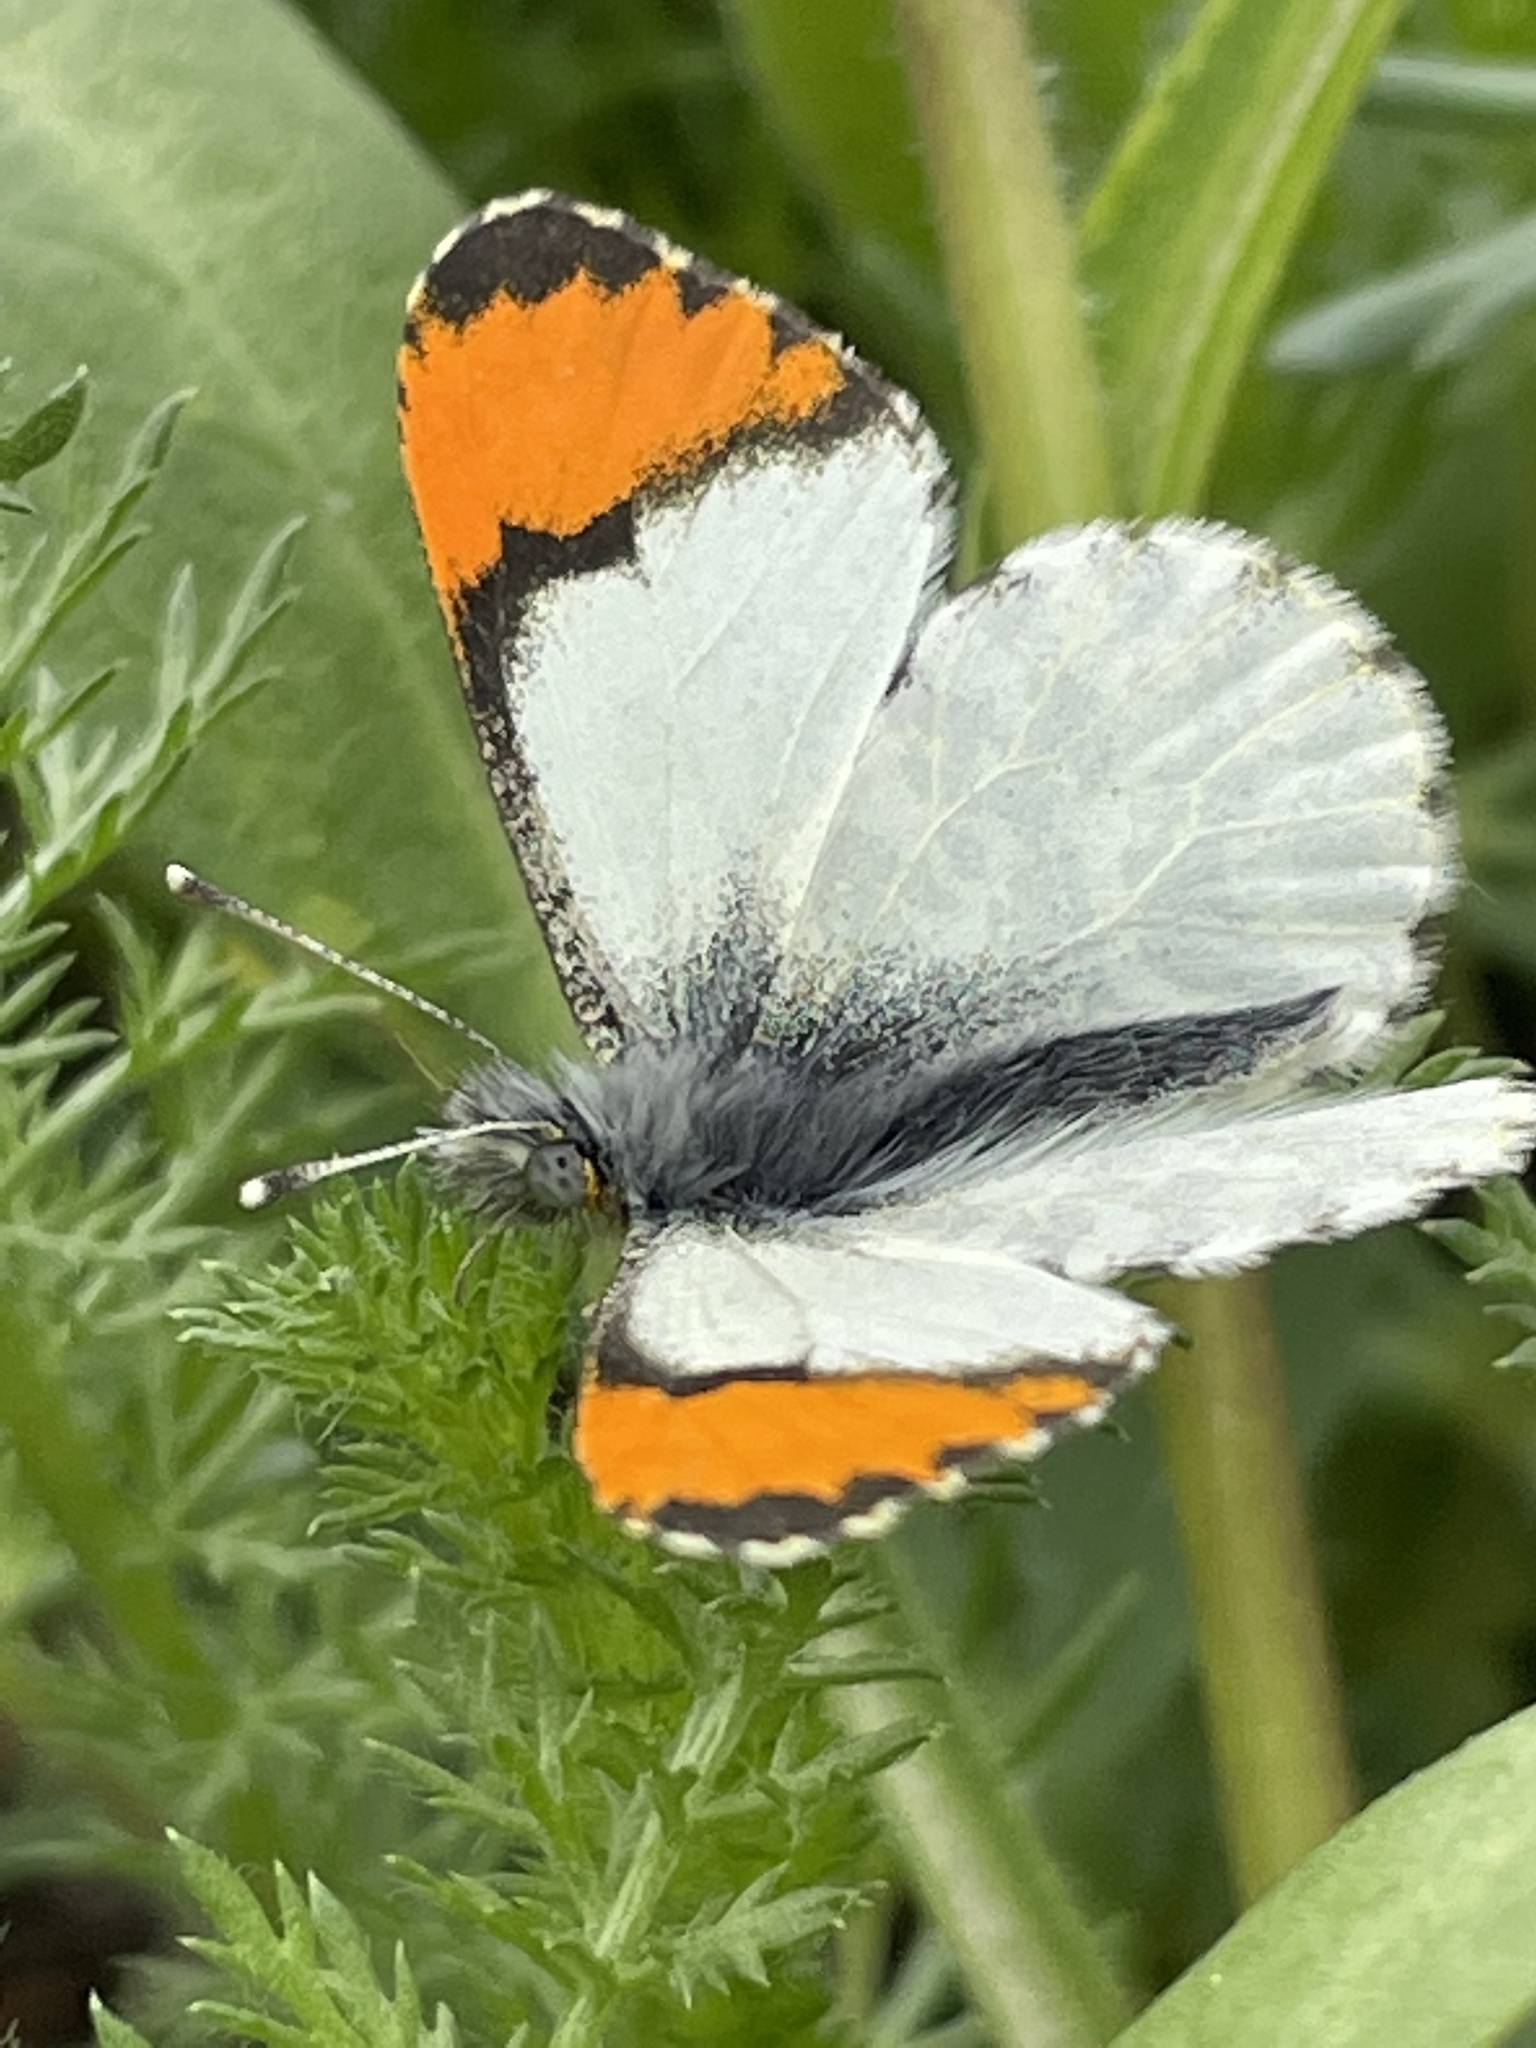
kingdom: Animalia
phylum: Arthropoda
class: Insecta
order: Lepidoptera
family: Pieridae
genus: Anthocharis
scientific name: Anthocharis julia
